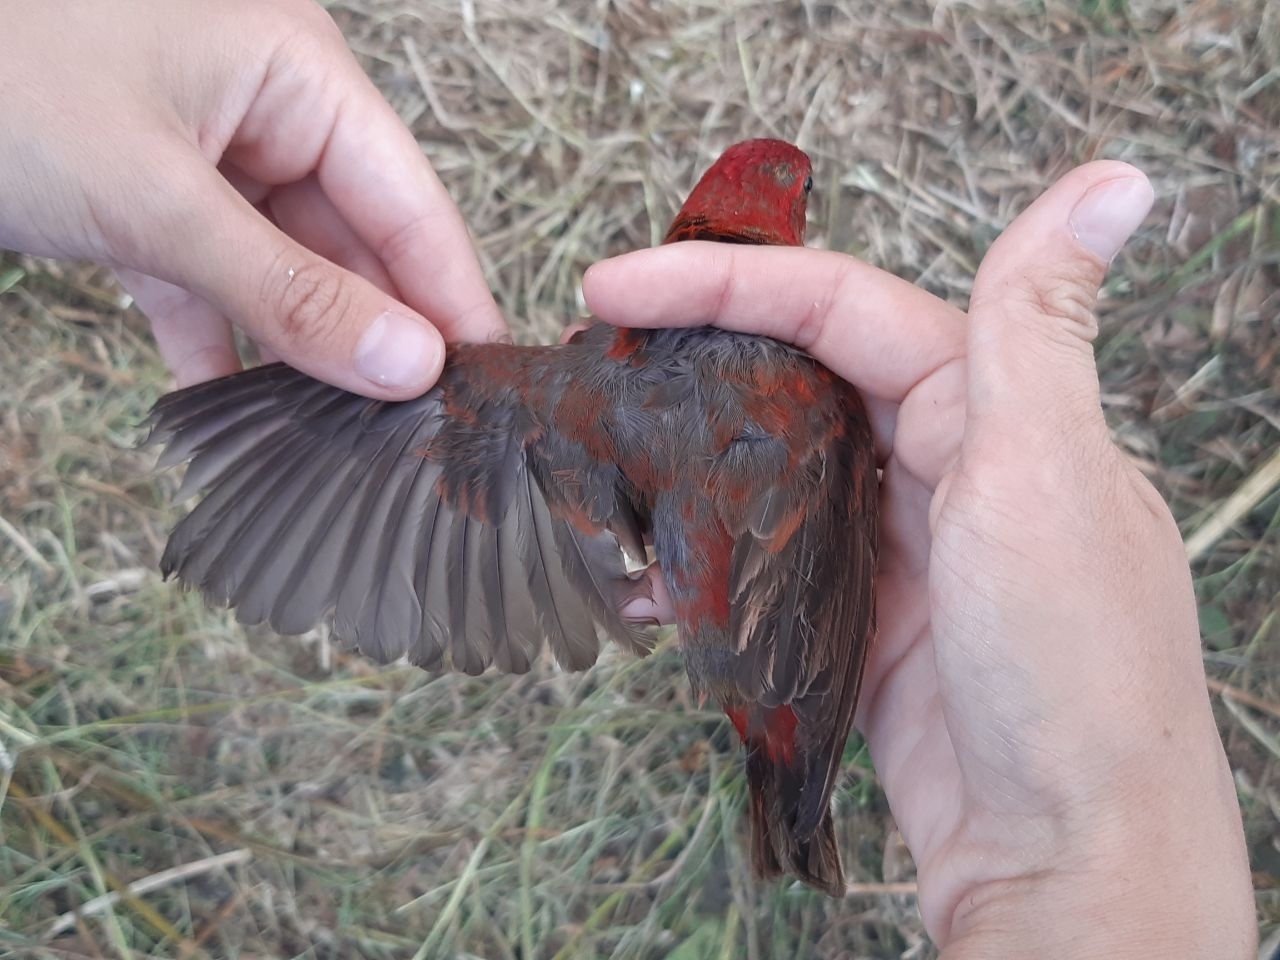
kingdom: Animalia
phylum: Chordata
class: Aves
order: Passeriformes
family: Fringillidae
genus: Carpodacus
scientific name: Carpodacus erythrinus
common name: Common rosefinch
